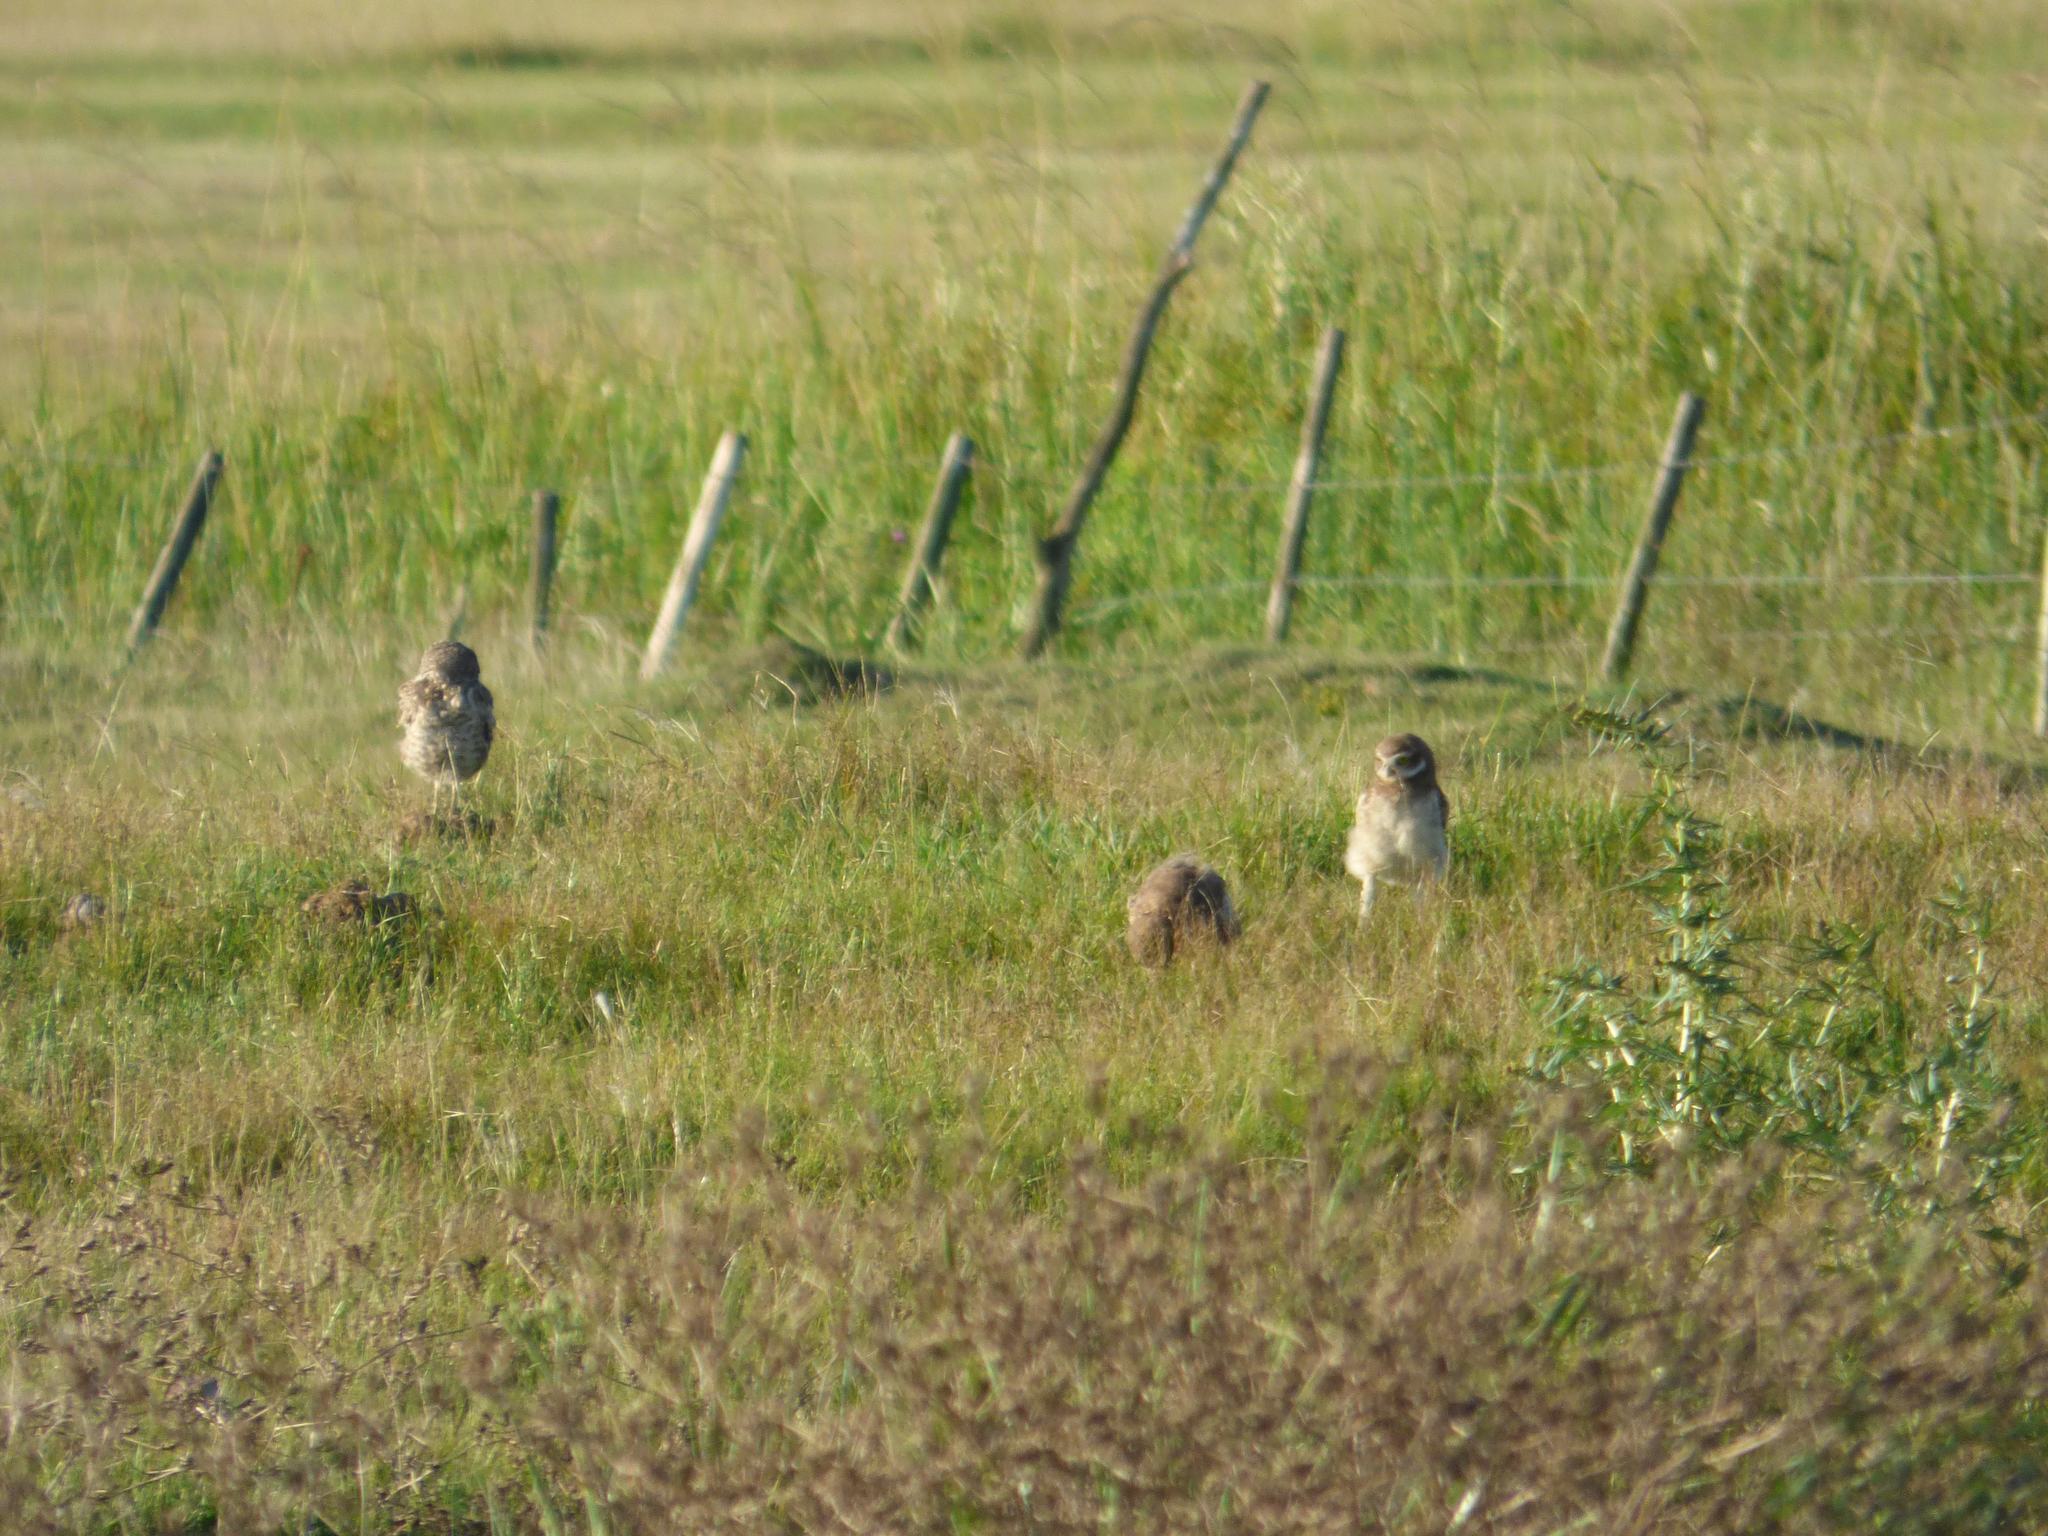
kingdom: Animalia
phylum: Chordata
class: Aves
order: Strigiformes
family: Strigidae
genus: Athene
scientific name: Athene cunicularia
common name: Burrowing owl
